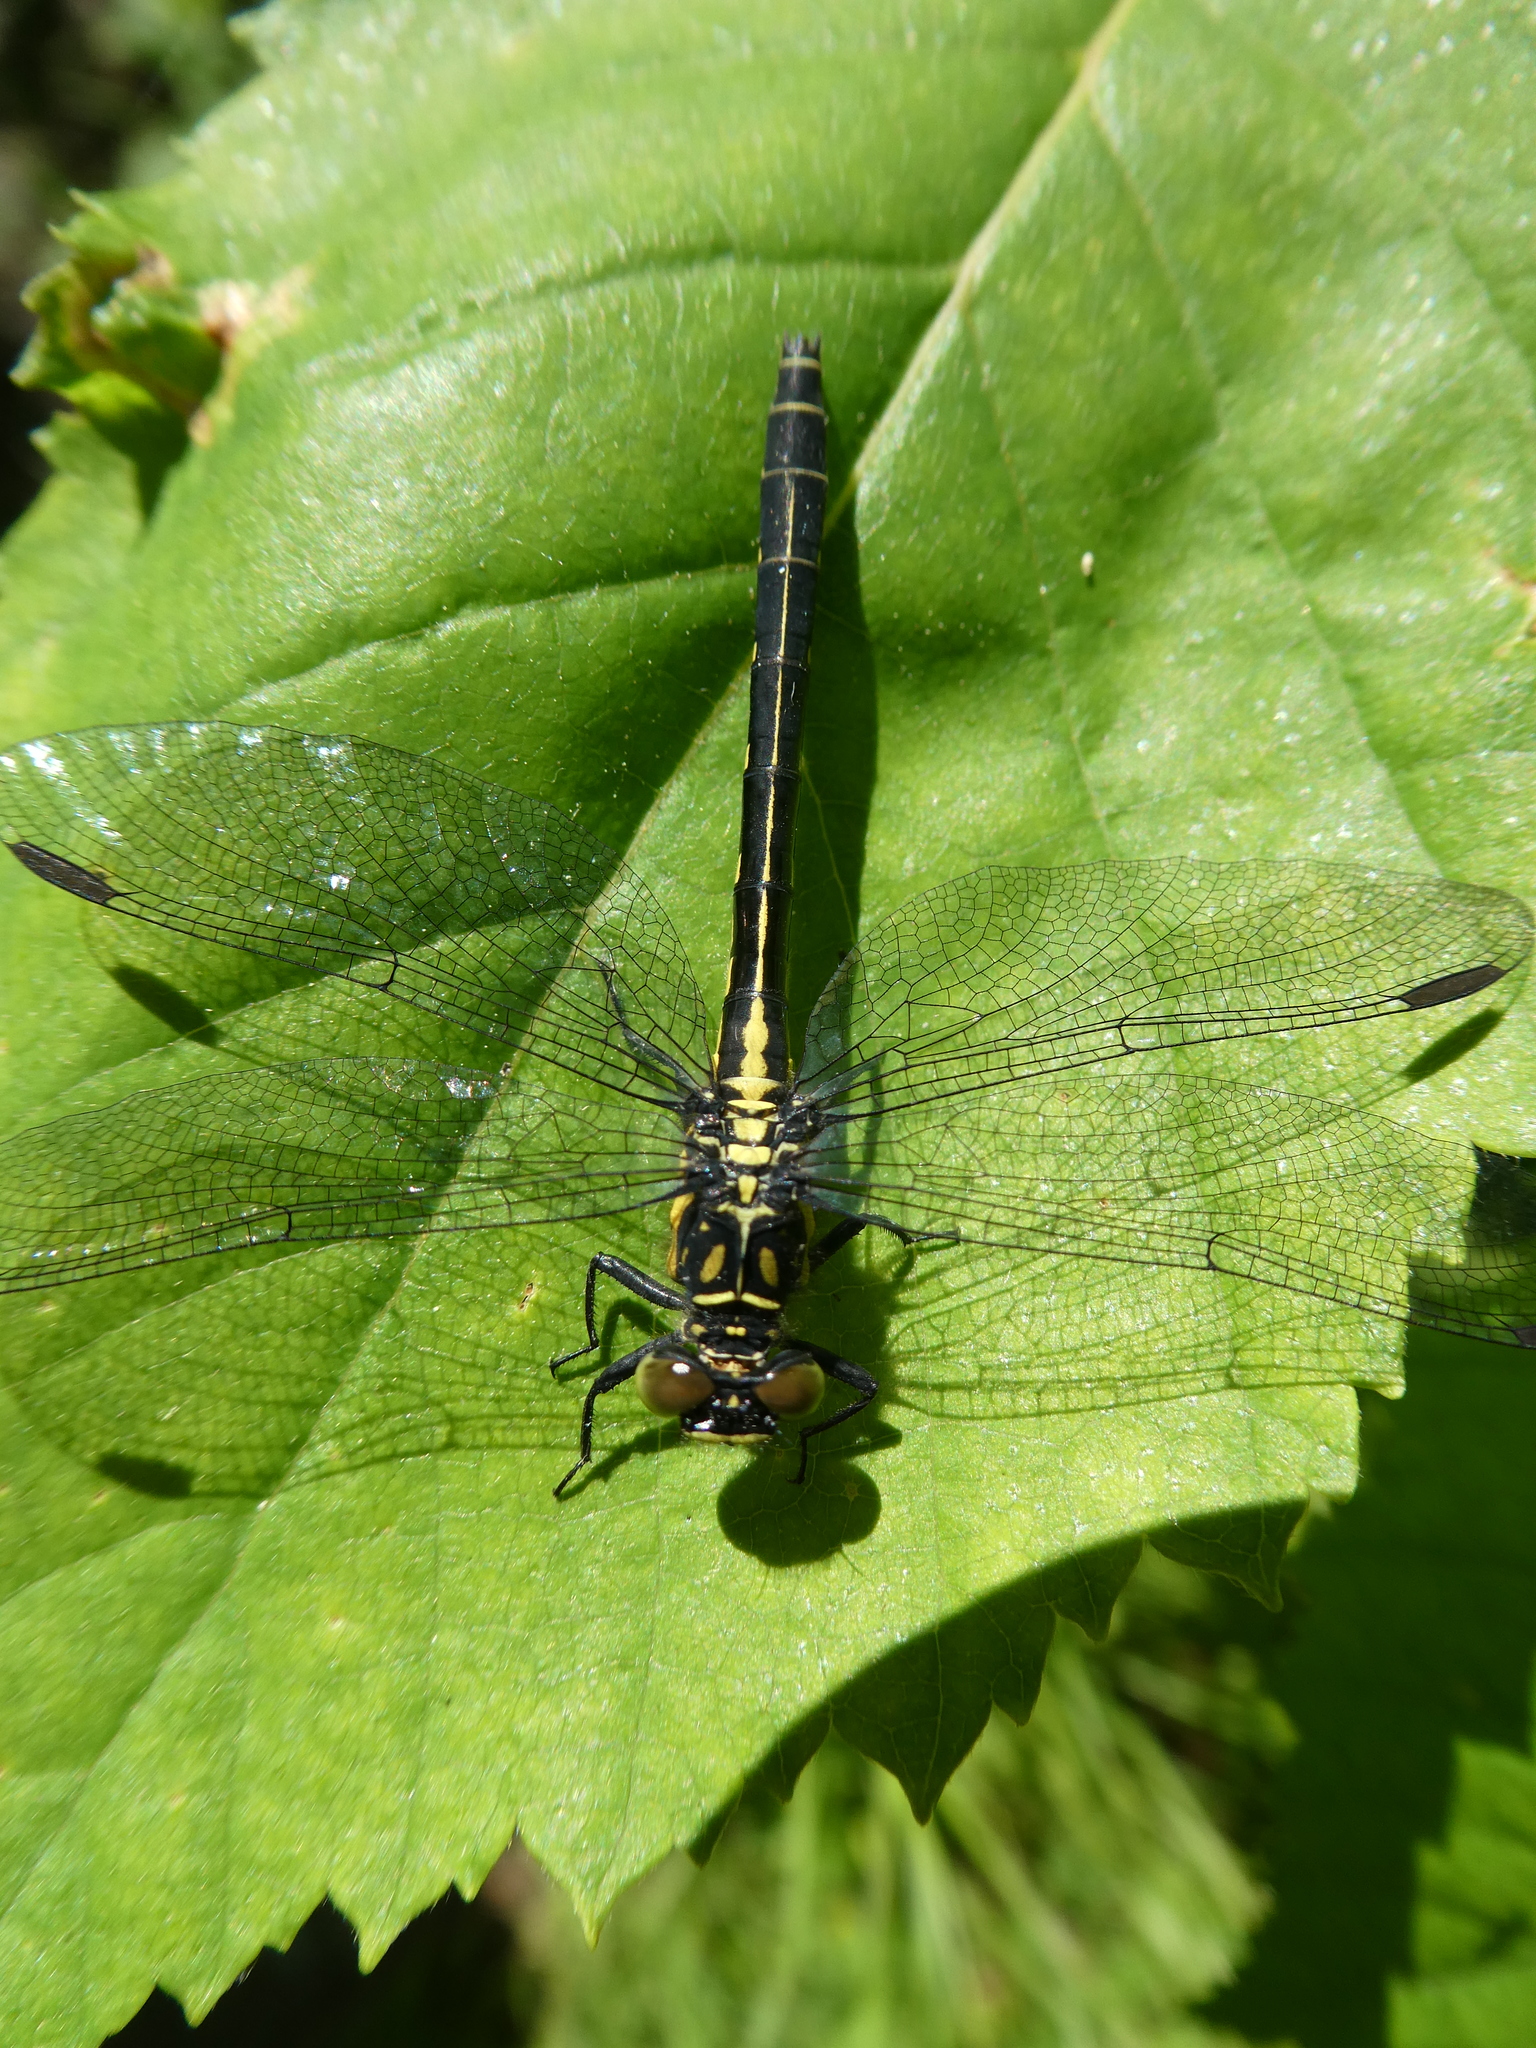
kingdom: Animalia
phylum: Arthropoda
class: Insecta
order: Odonata
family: Gomphidae
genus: Lanthus
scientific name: Lanthus parvulus
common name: Northern pygmy clubtail
